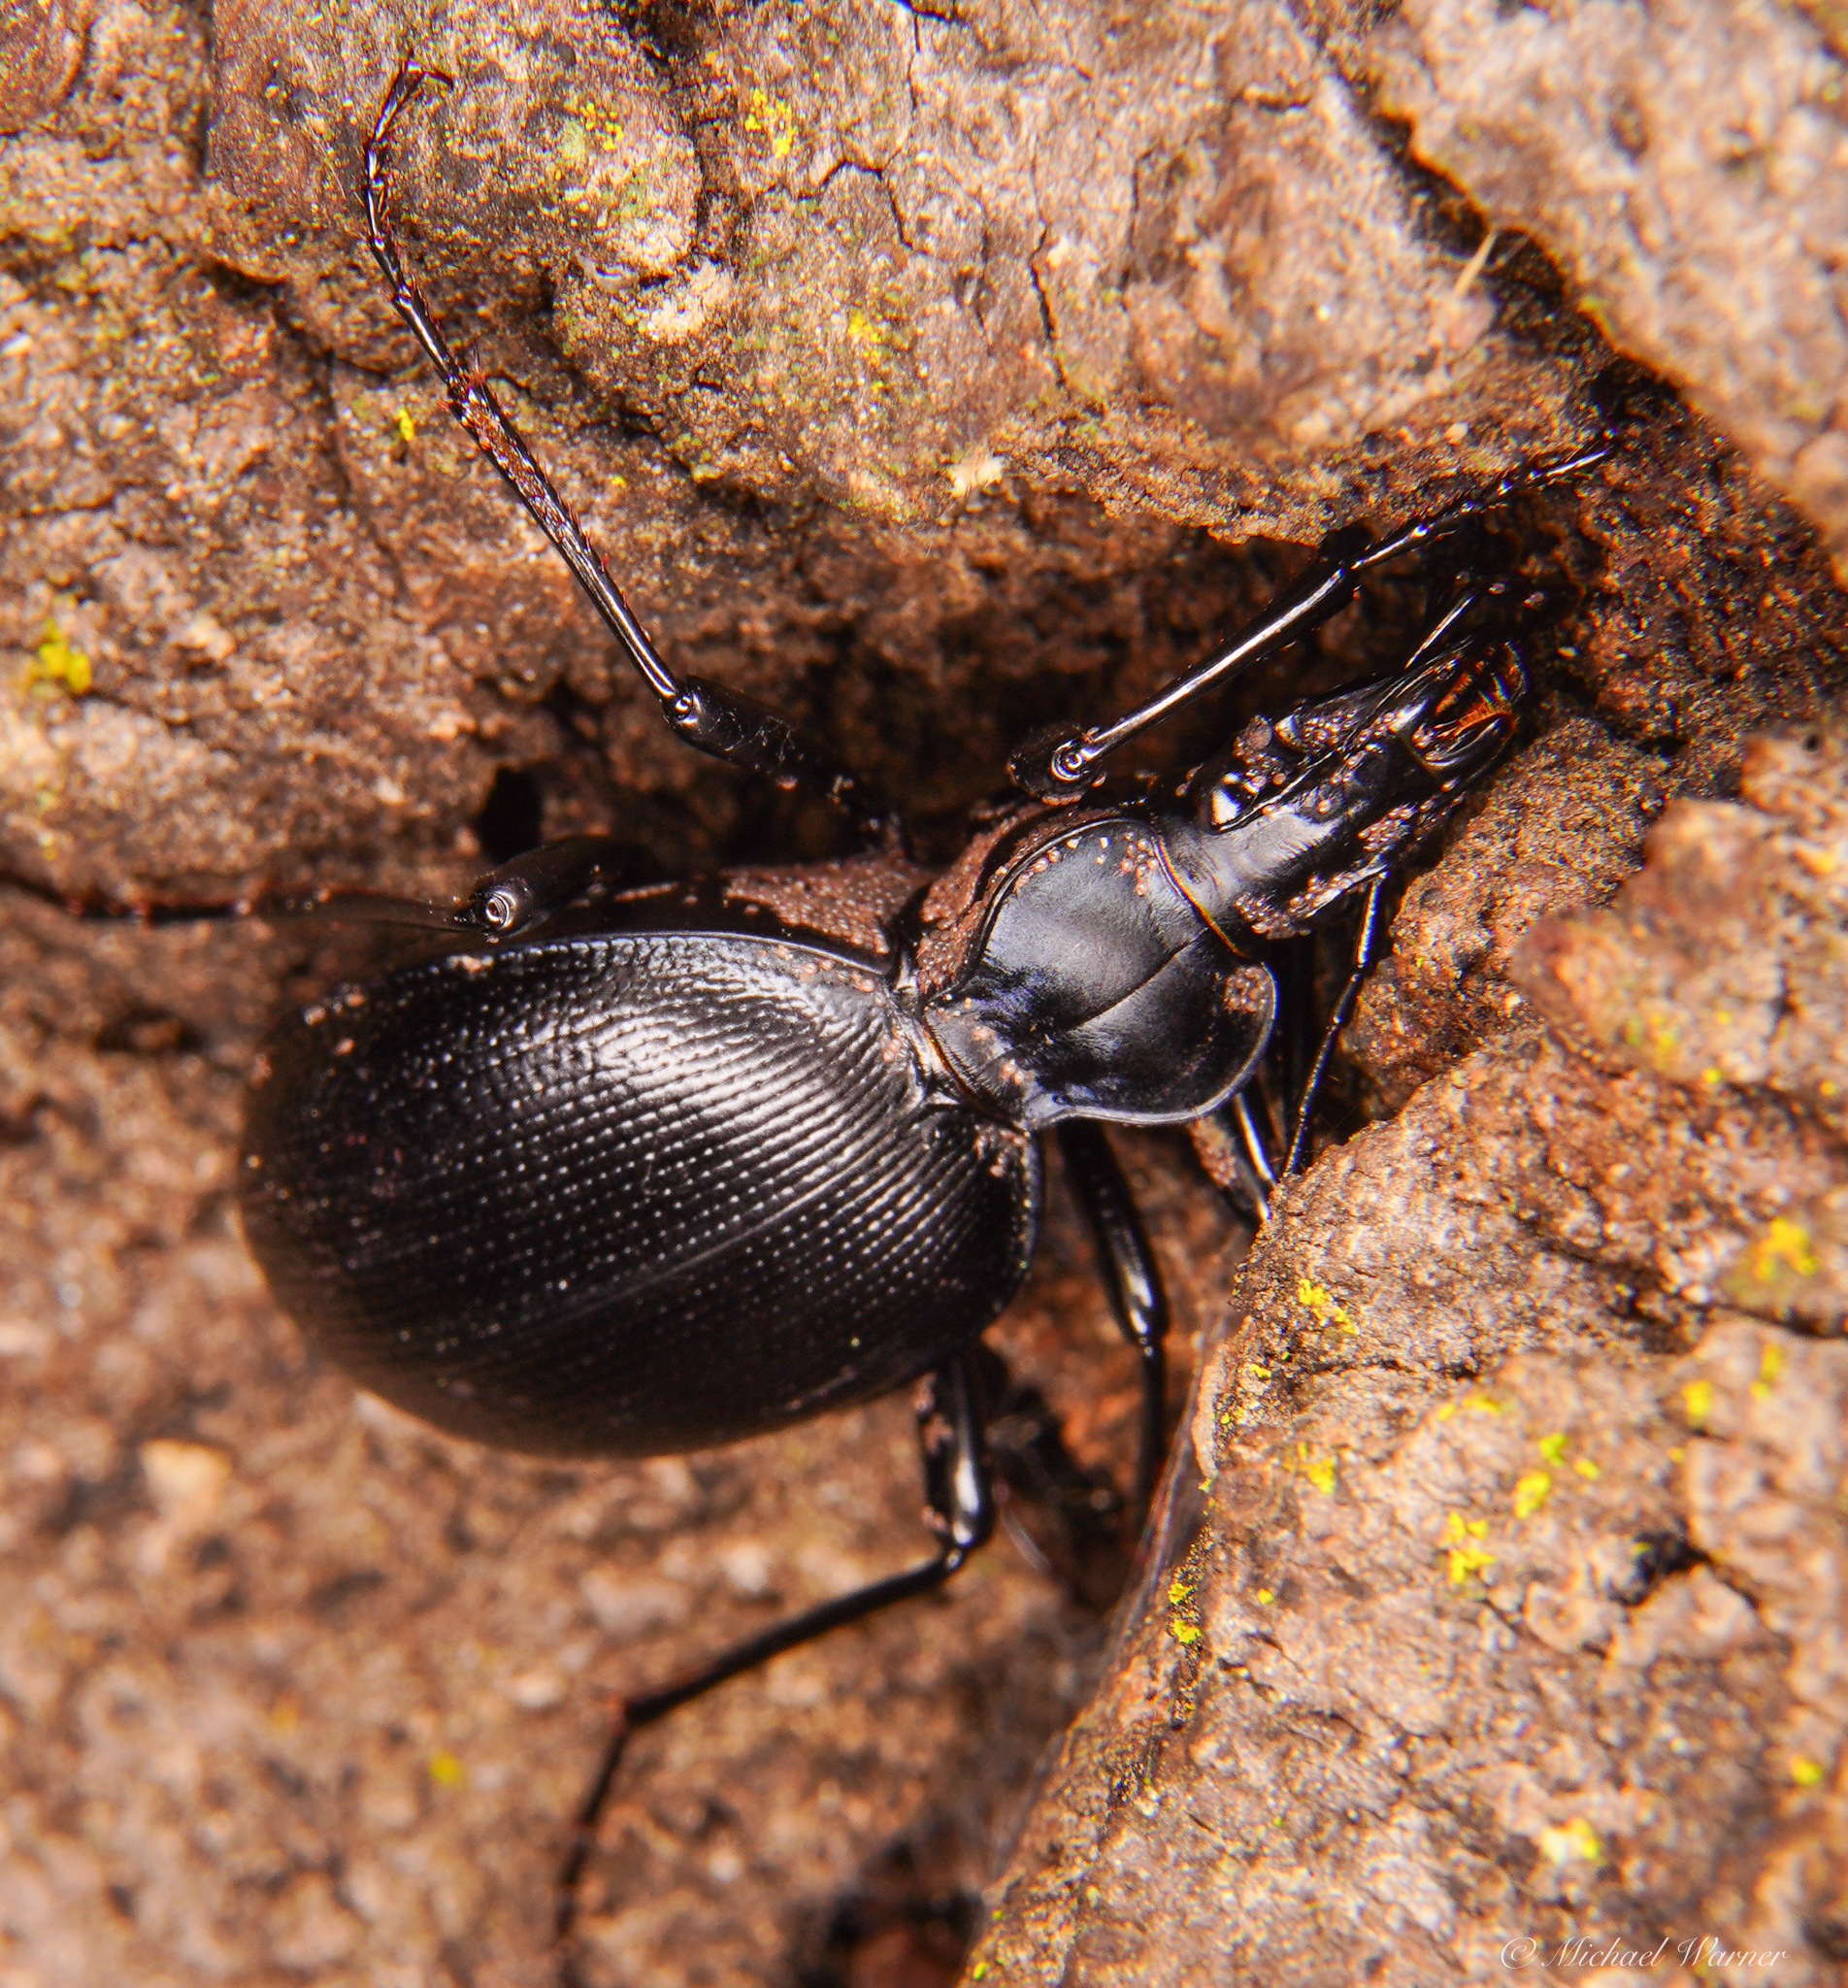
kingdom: Animalia
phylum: Arthropoda
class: Insecta
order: Coleoptera
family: Carabidae
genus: Scaphinotus
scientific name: Scaphinotus ventricosus
